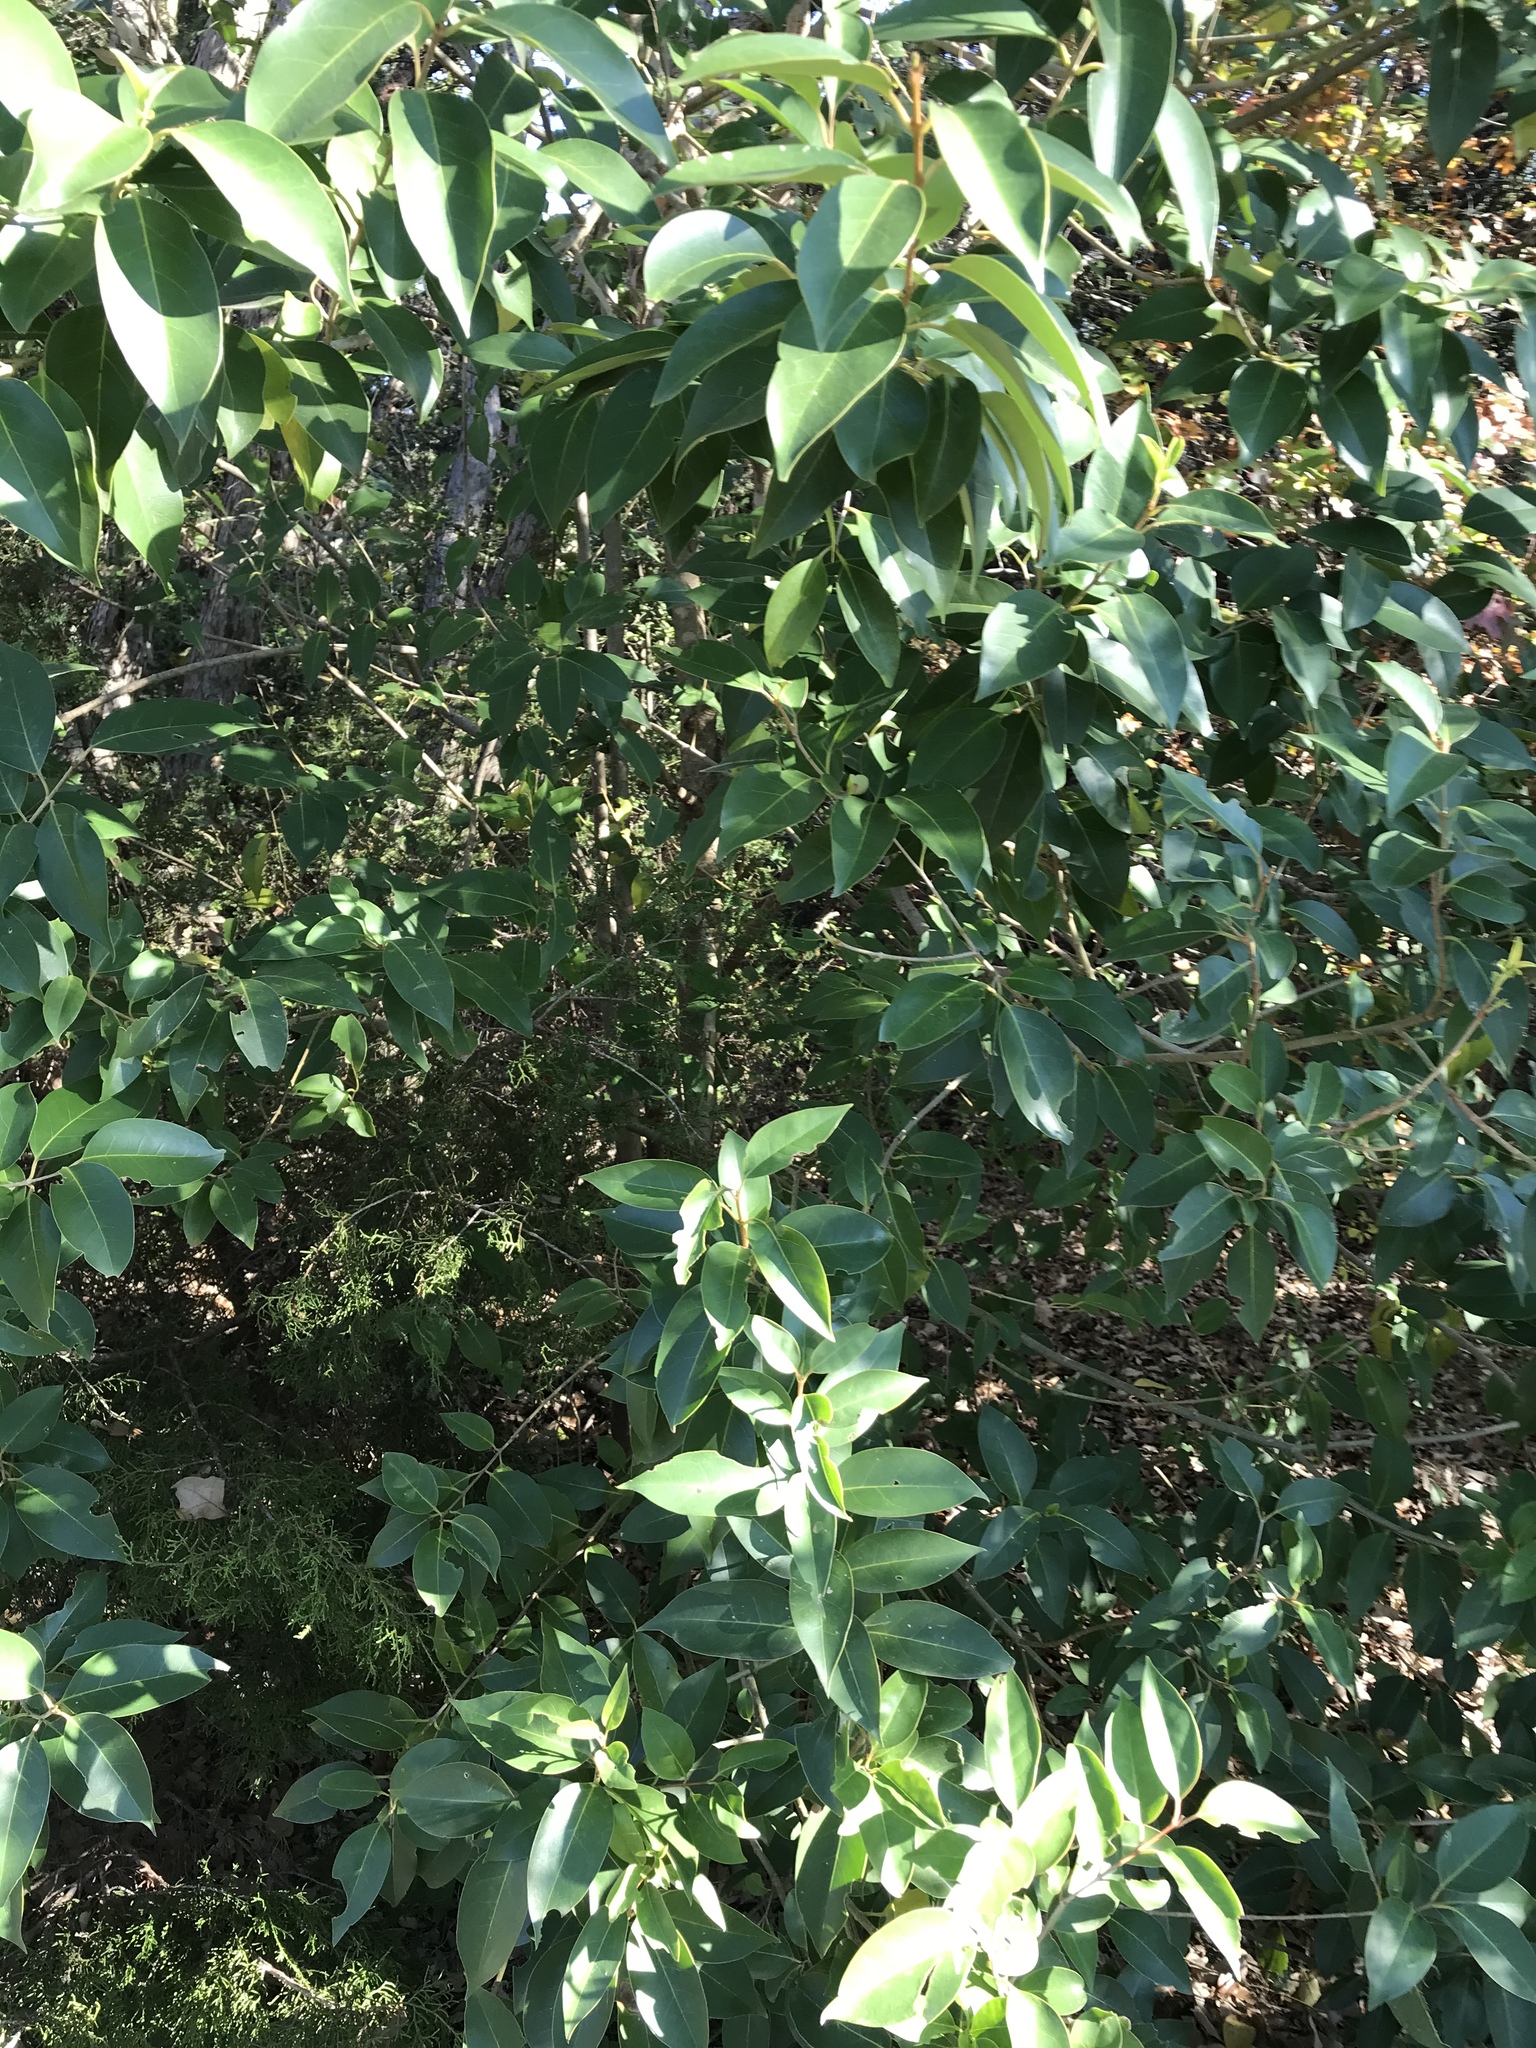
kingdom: Plantae
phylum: Tracheophyta
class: Magnoliopsida
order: Lamiales
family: Oleaceae
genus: Ligustrum
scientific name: Ligustrum lucidum
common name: Glossy privet
